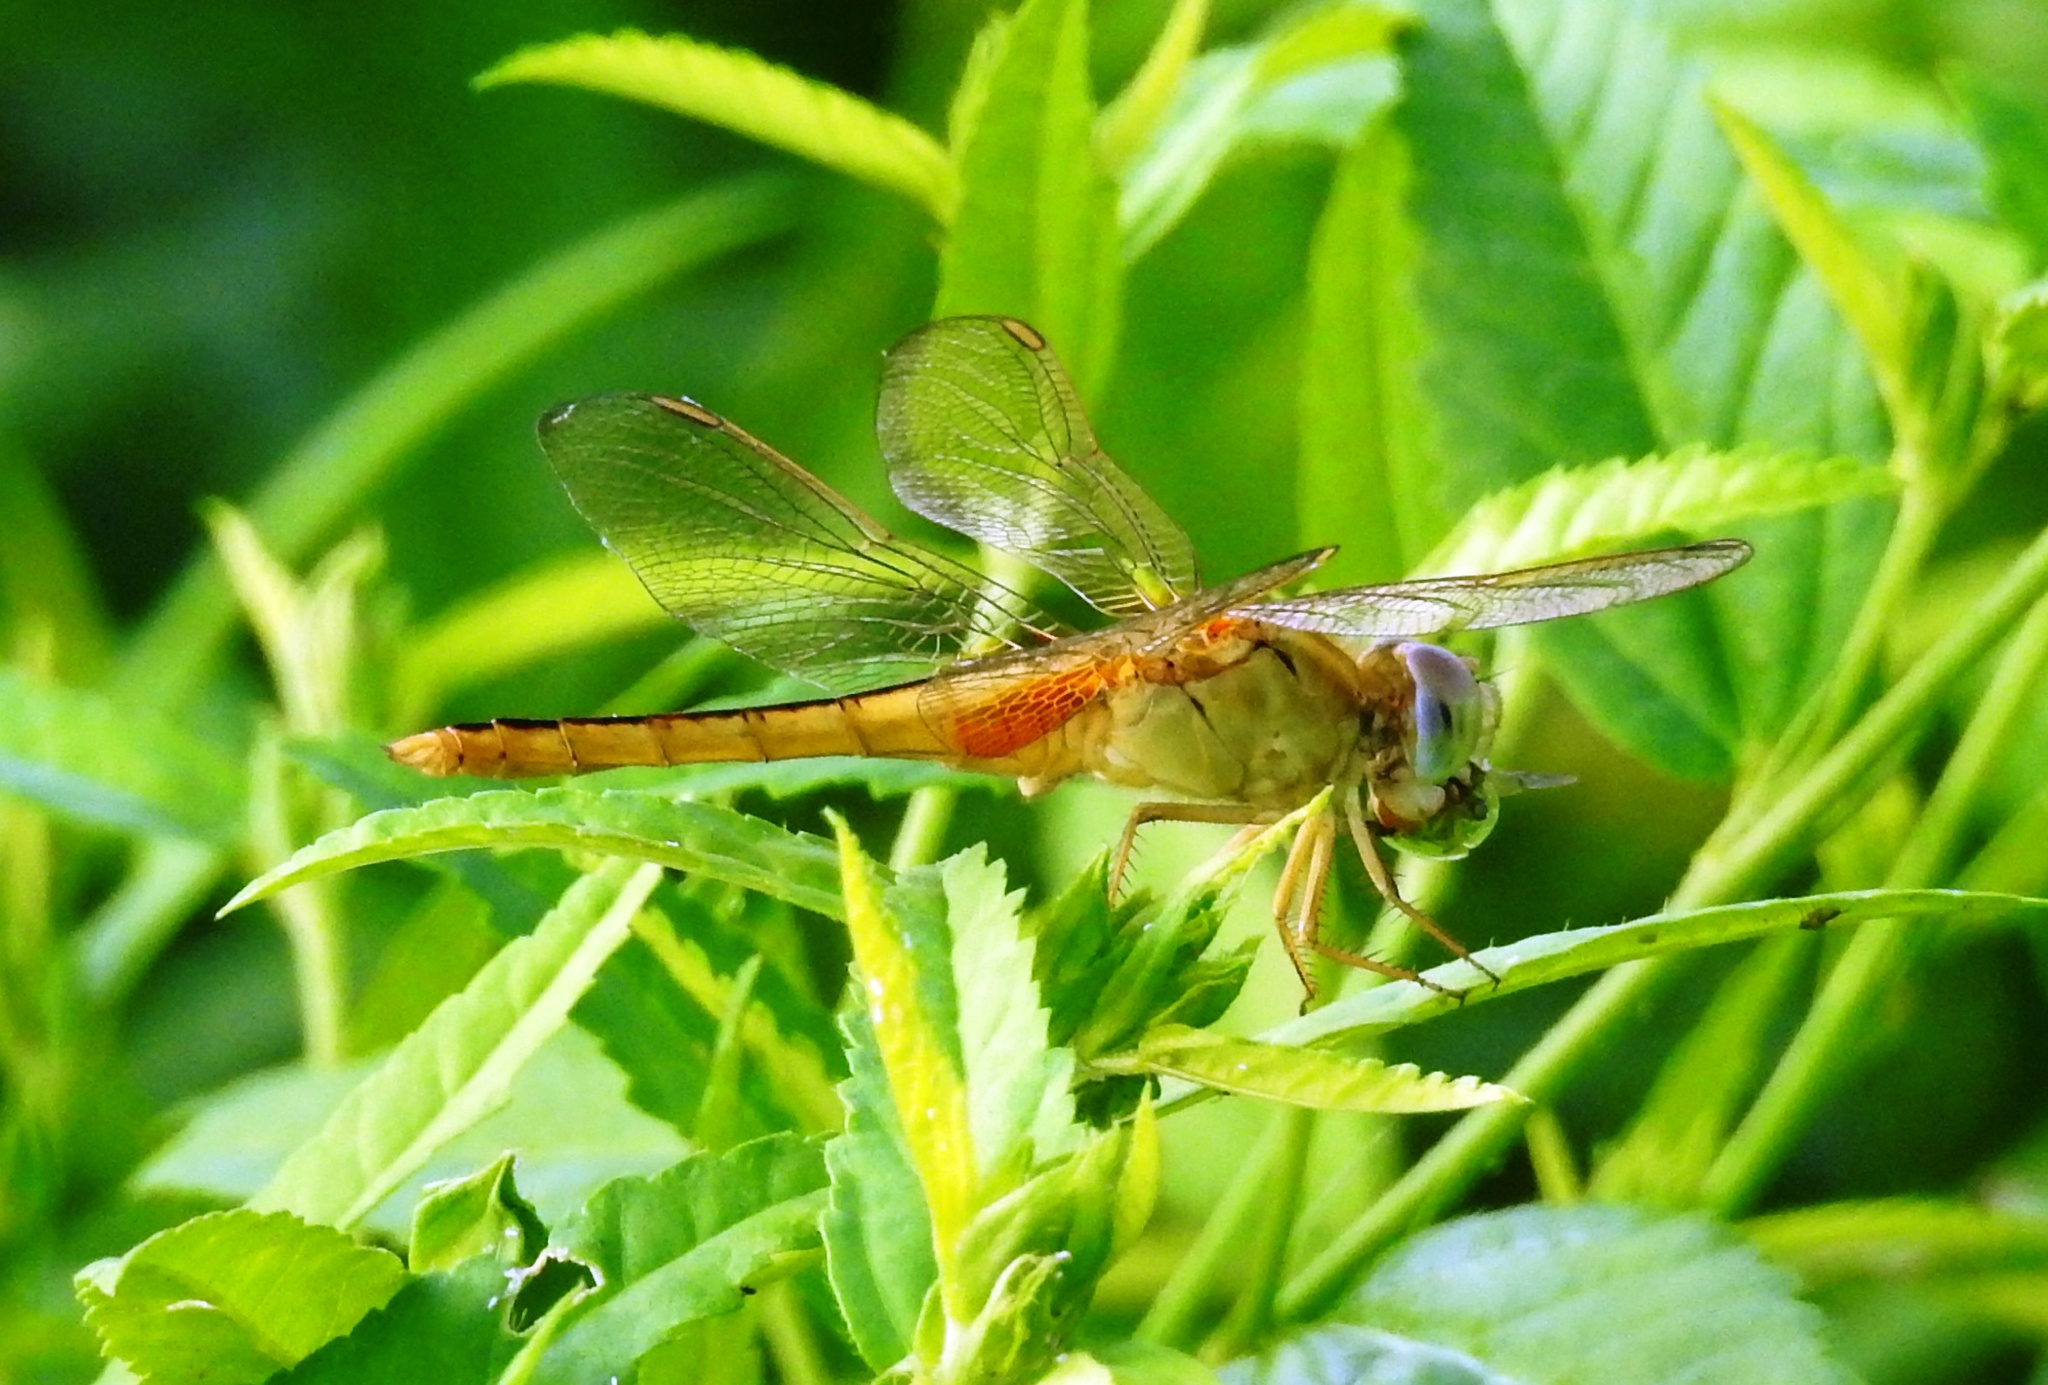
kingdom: Animalia
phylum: Arthropoda
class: Insecta
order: Odonata
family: Libellulidae
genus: Crocothemis
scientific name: Crocothemis servilia
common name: Scarlet skimmer
